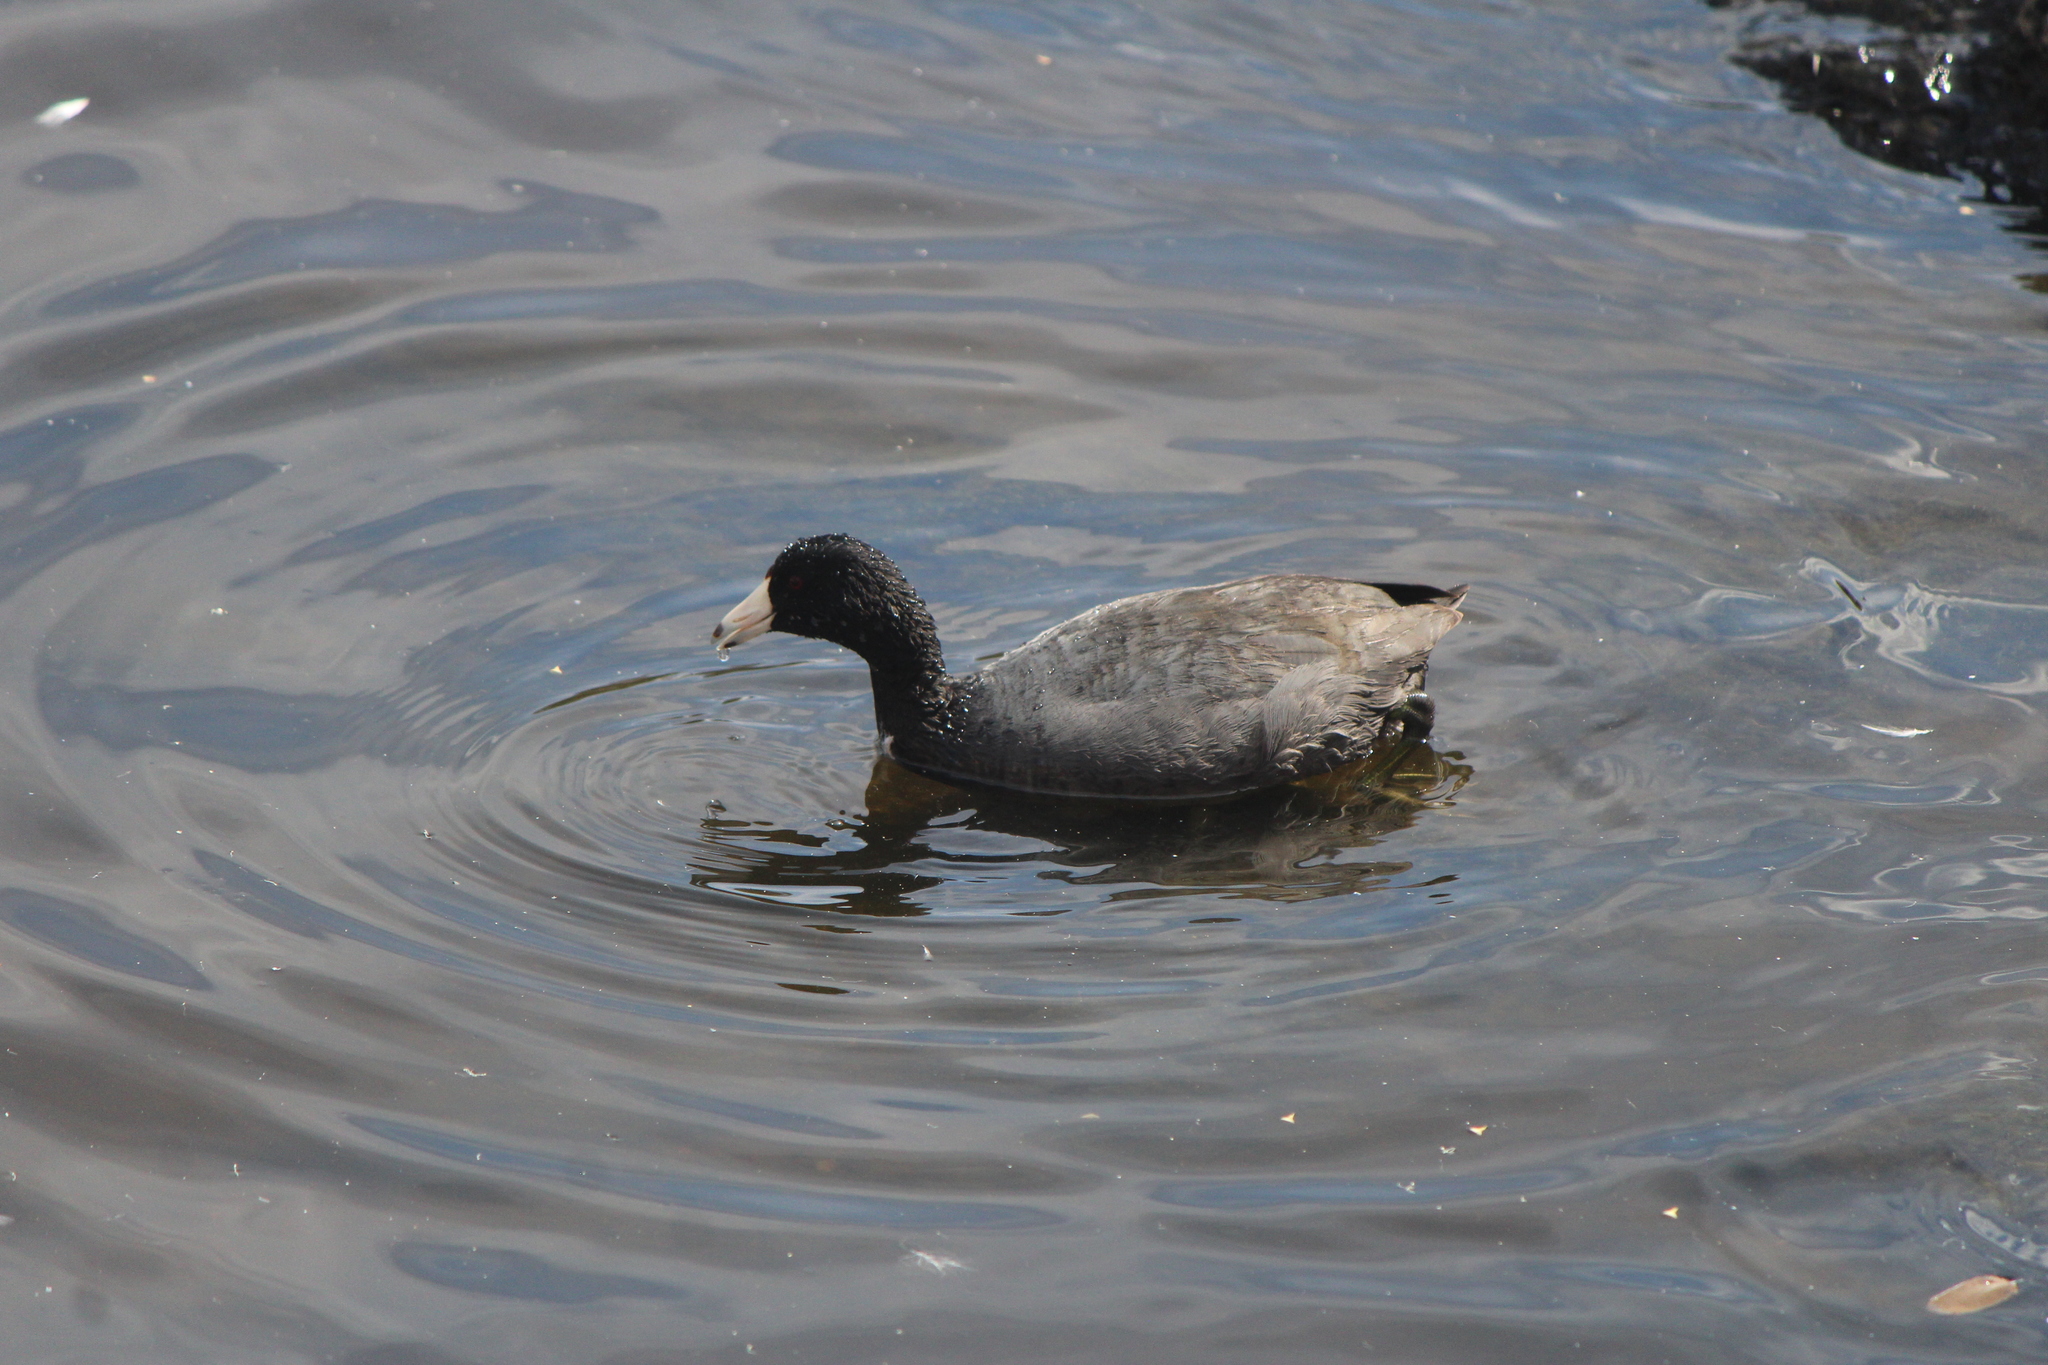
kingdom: Animalia
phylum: Chordata
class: Aves
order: Gruiformes
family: Rallidae
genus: Fulica
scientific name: Fulica americana
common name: American coot
